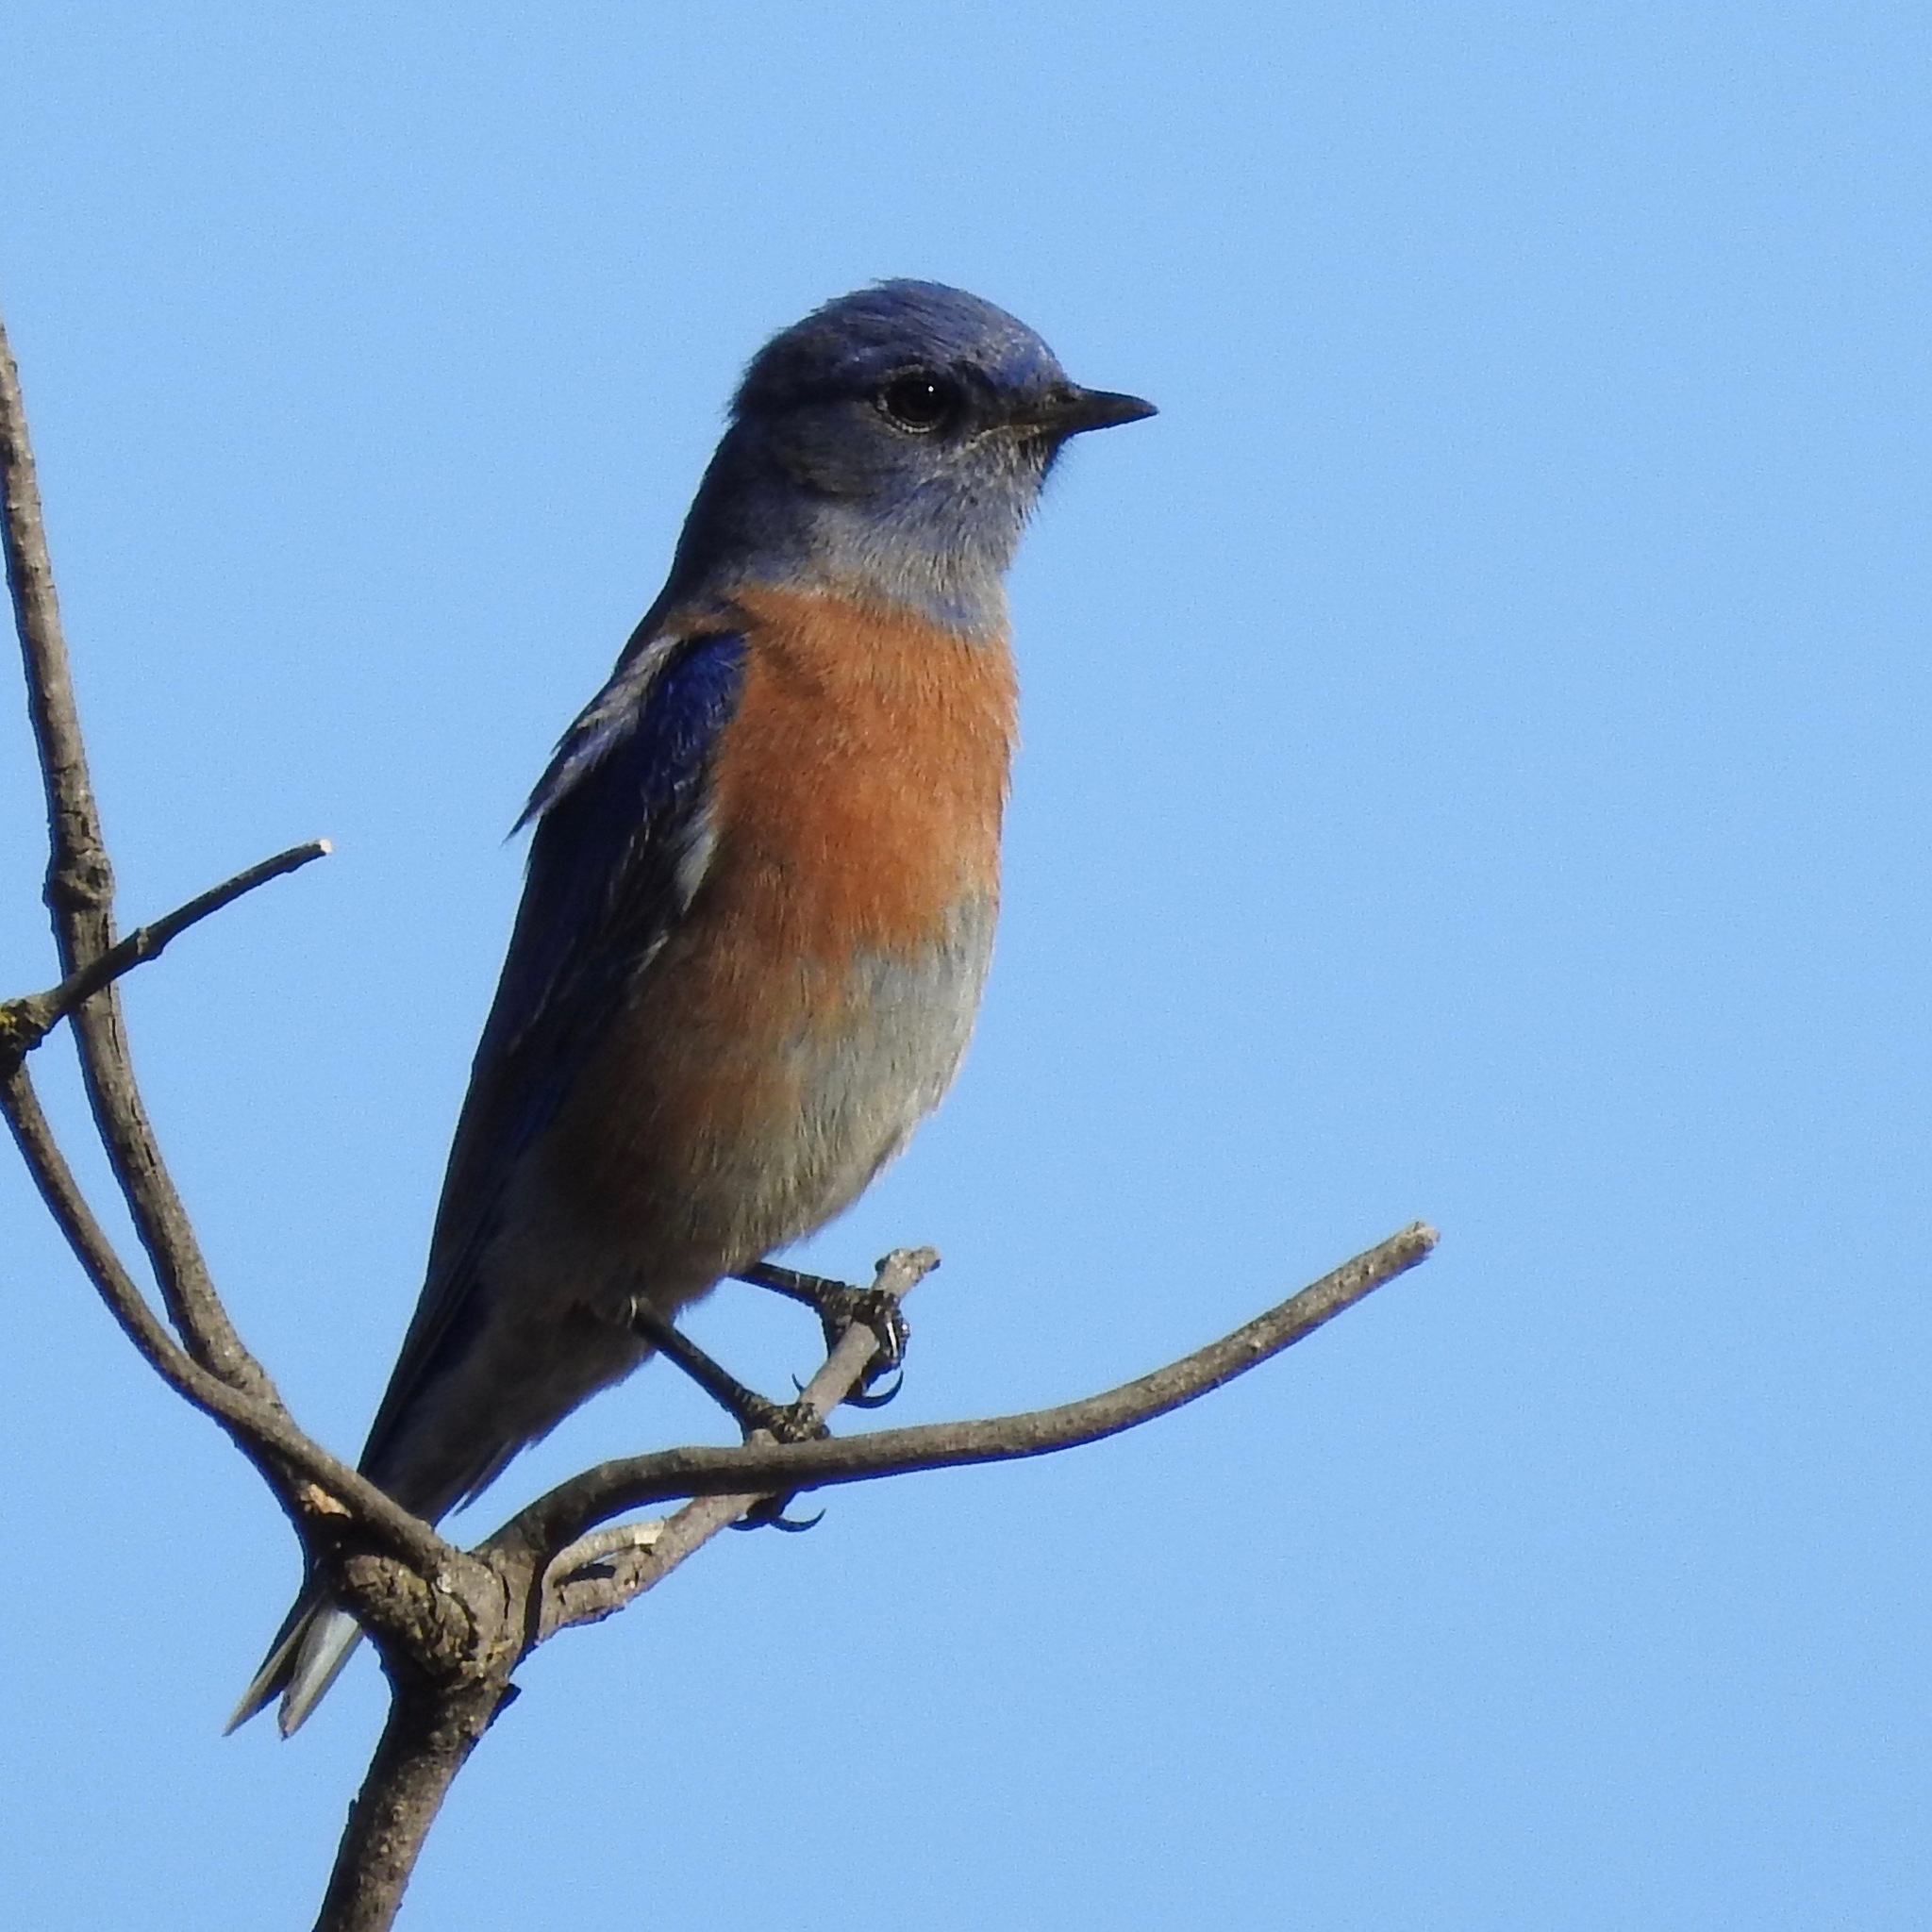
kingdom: Animalia
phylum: Chordata
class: Aves
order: Passeriformes
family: Turdidae
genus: Sialia
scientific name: Sialia mexicana
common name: Western bluebird
